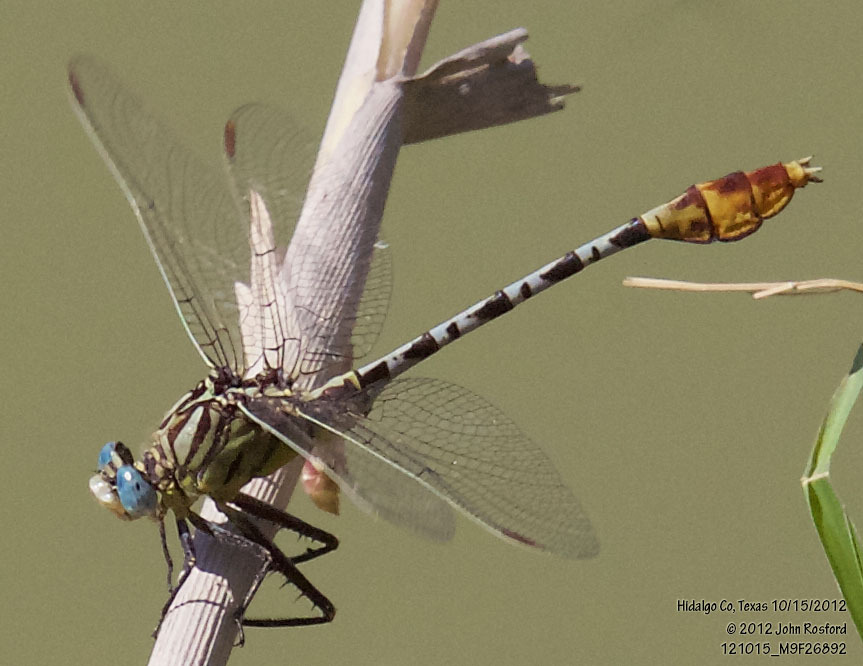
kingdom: Animalia
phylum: Arthropoda
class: Insecta
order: Odonata
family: Gomphidae
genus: Dromogomphus
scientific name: Dromogomphus spoliatus
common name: Flag-tailed spinyleg
